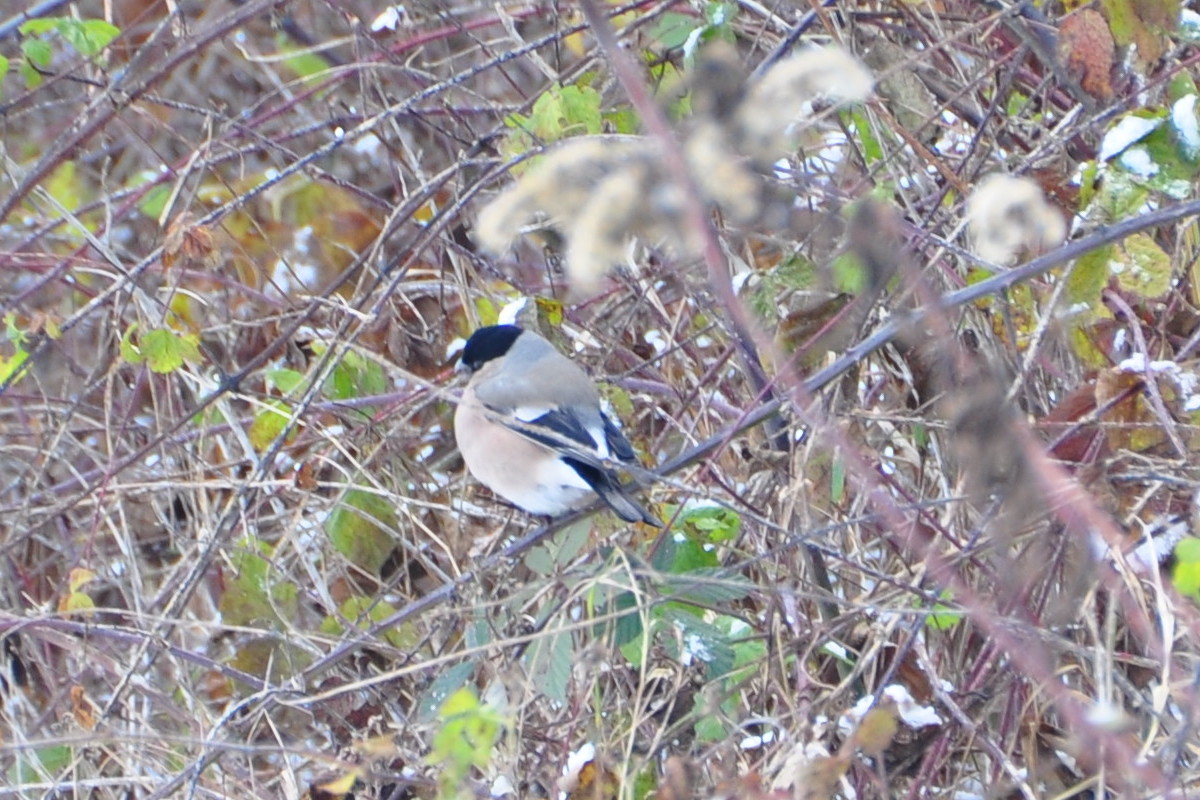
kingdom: Animalia
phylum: Chordata
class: Aves
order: Passeriformes
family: Fringillidae
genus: Pyrrhula
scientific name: Pyrrhula pyrrhula
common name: Eurasian bullfinch
